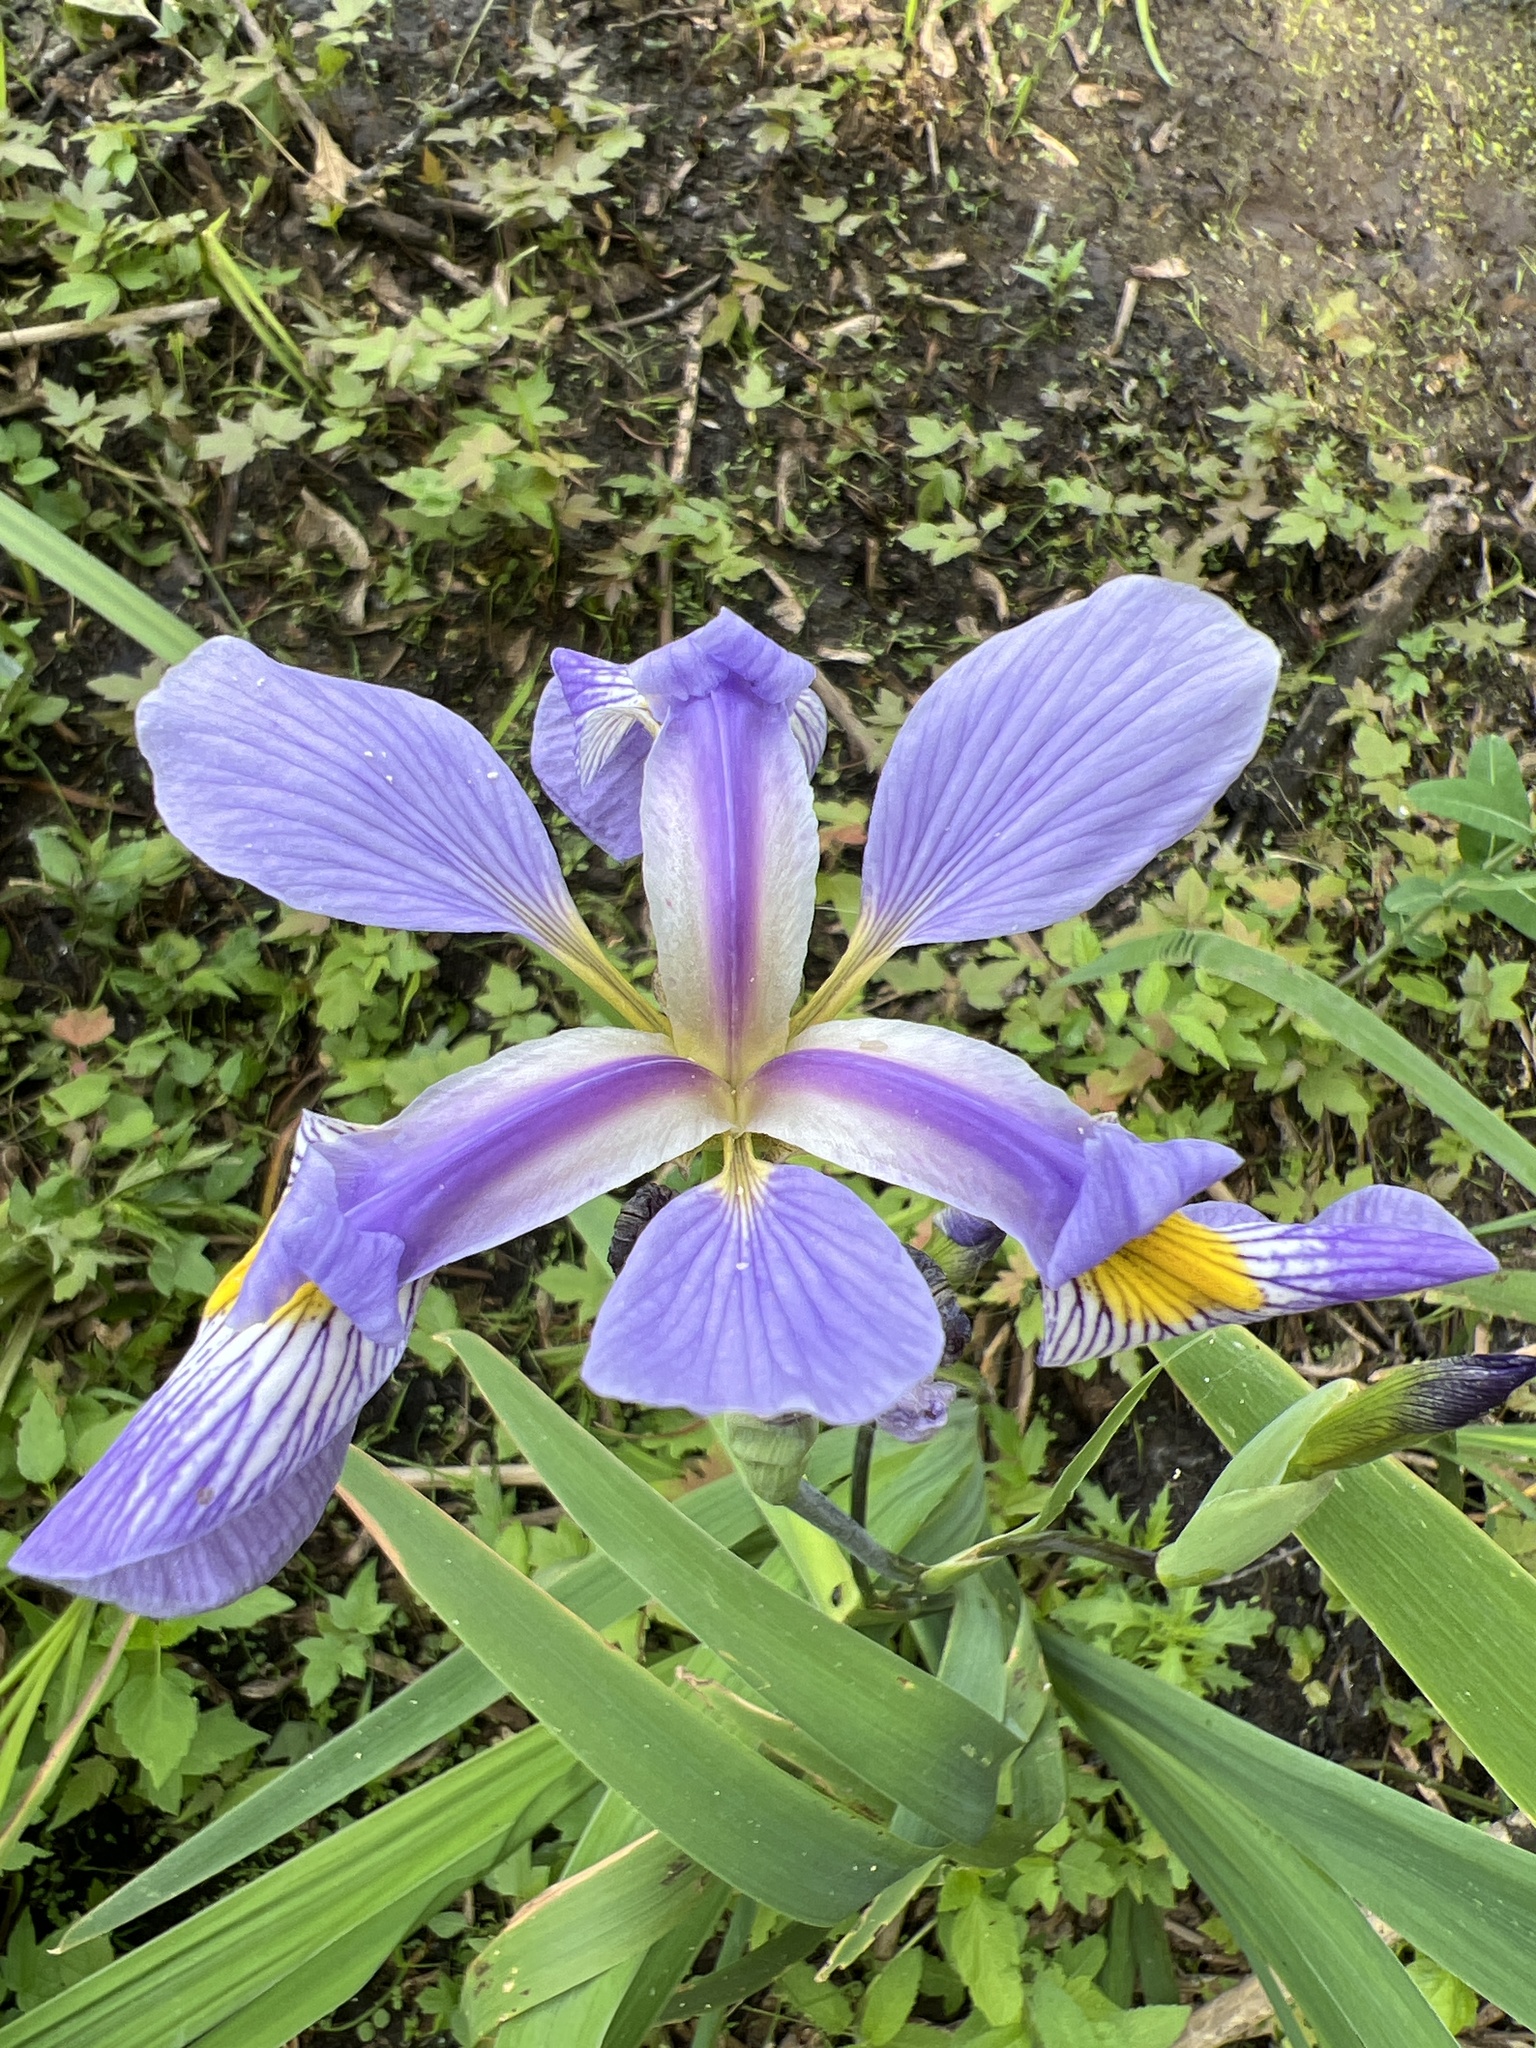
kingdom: Plantae
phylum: Tracheophyta
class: Liliopsida
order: Asparagales
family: Iridaceae
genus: Iris
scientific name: Iris virginica
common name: Southern blue flag
